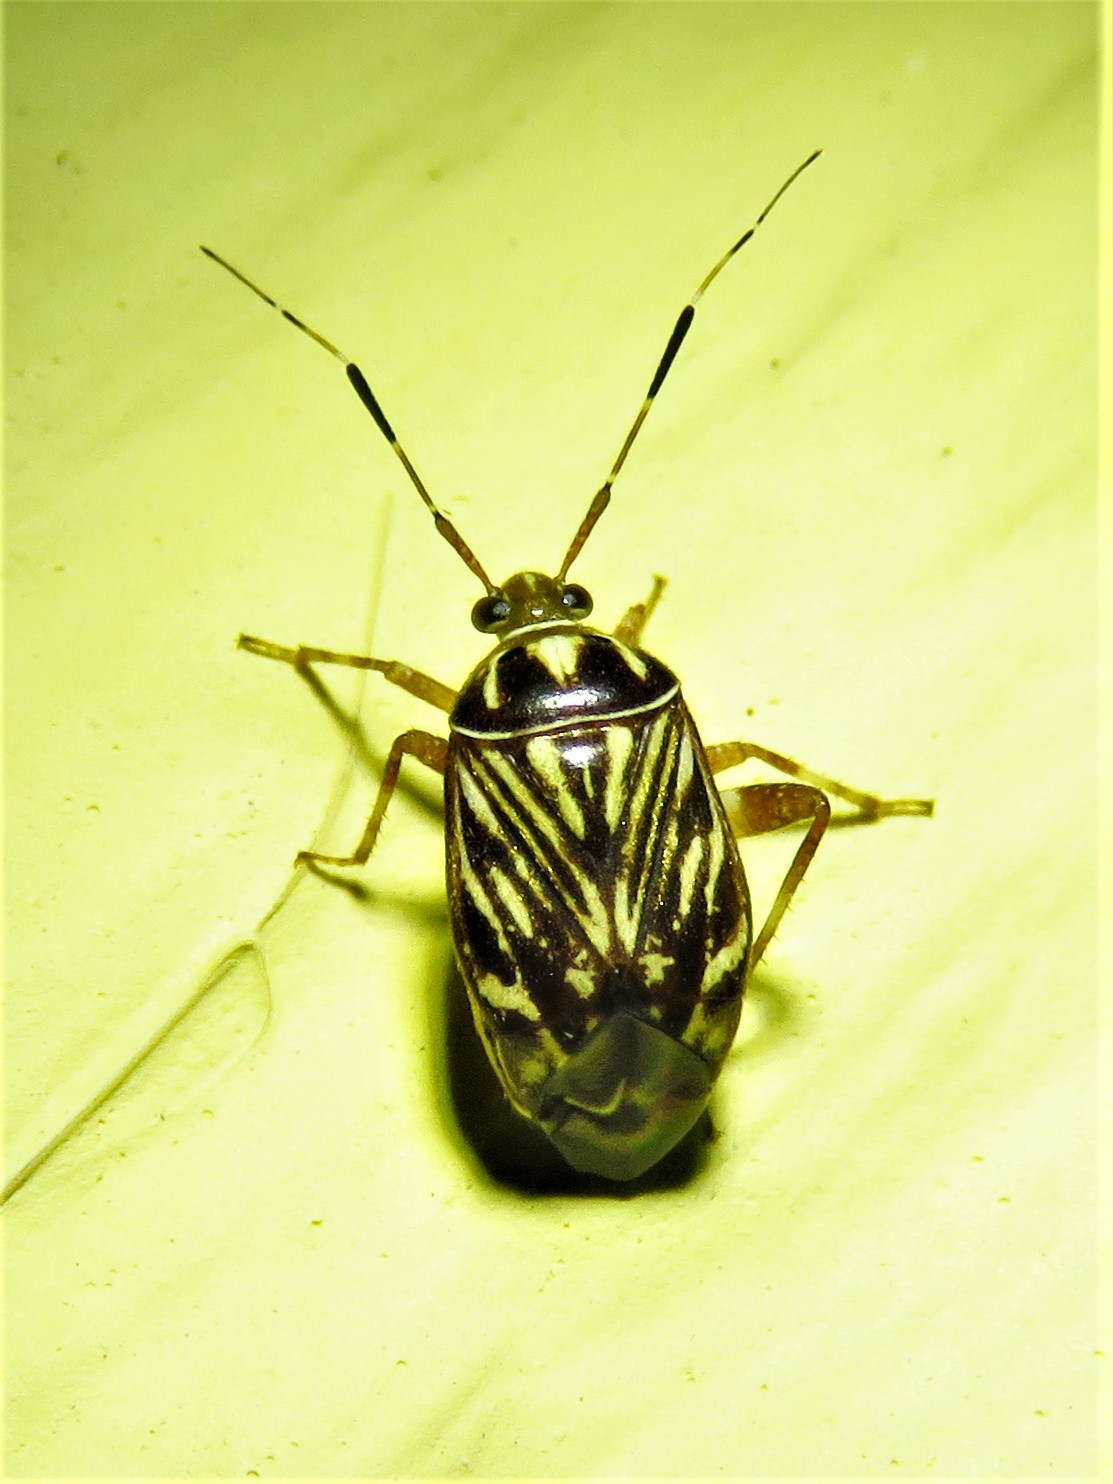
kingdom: Animalia
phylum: Arthropoda
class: Insecta
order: Hemiptera
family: Miridae
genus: Taedia
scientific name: Taedia virgulata
